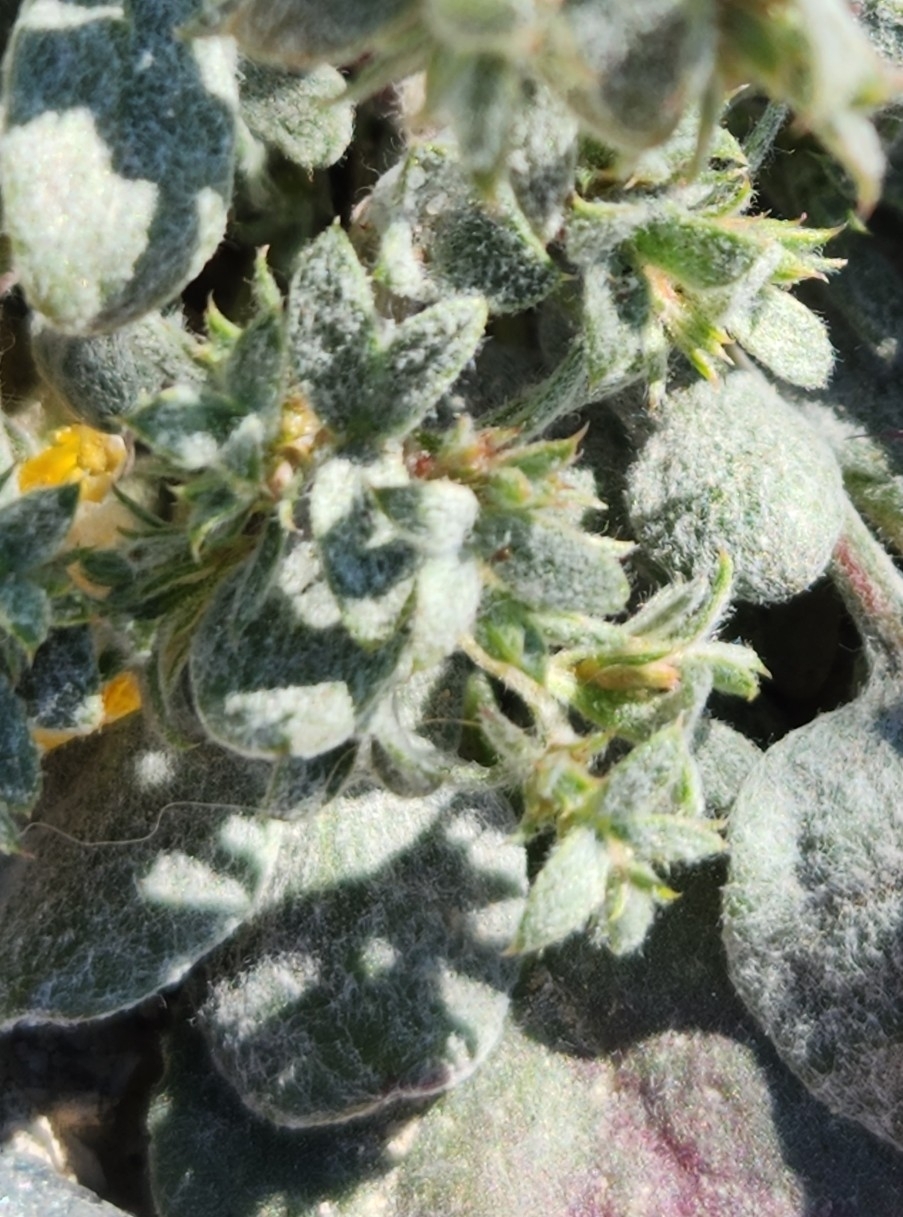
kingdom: Plantae
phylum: Tracheophyta
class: Magnoliopsida
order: Caryophyllales
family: Polygonaceae
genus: Chorizanthe
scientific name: Chorizanthe corrugata
